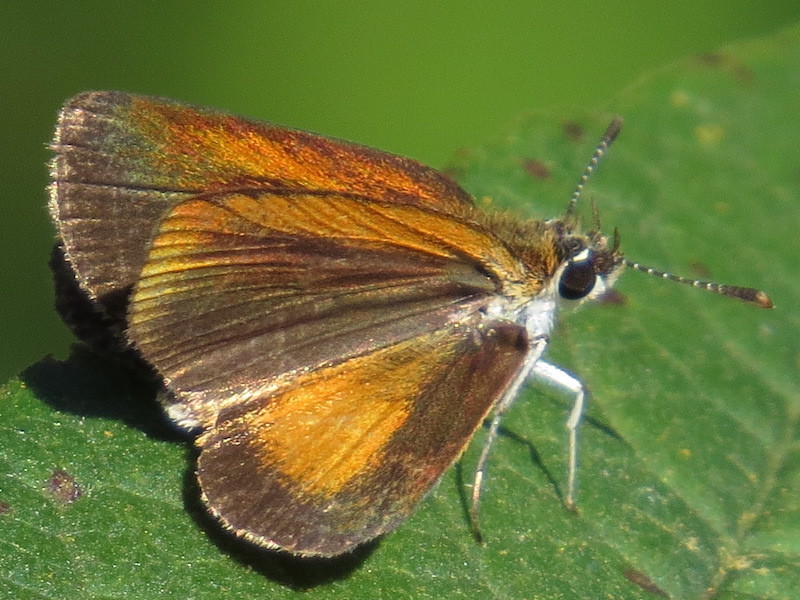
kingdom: Animalia
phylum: Arthropoda
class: Insecta
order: Lepidoptera
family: Hesperiidae
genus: Ancyloxypha
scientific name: Ancyloxypha numitor
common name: Least skipper
